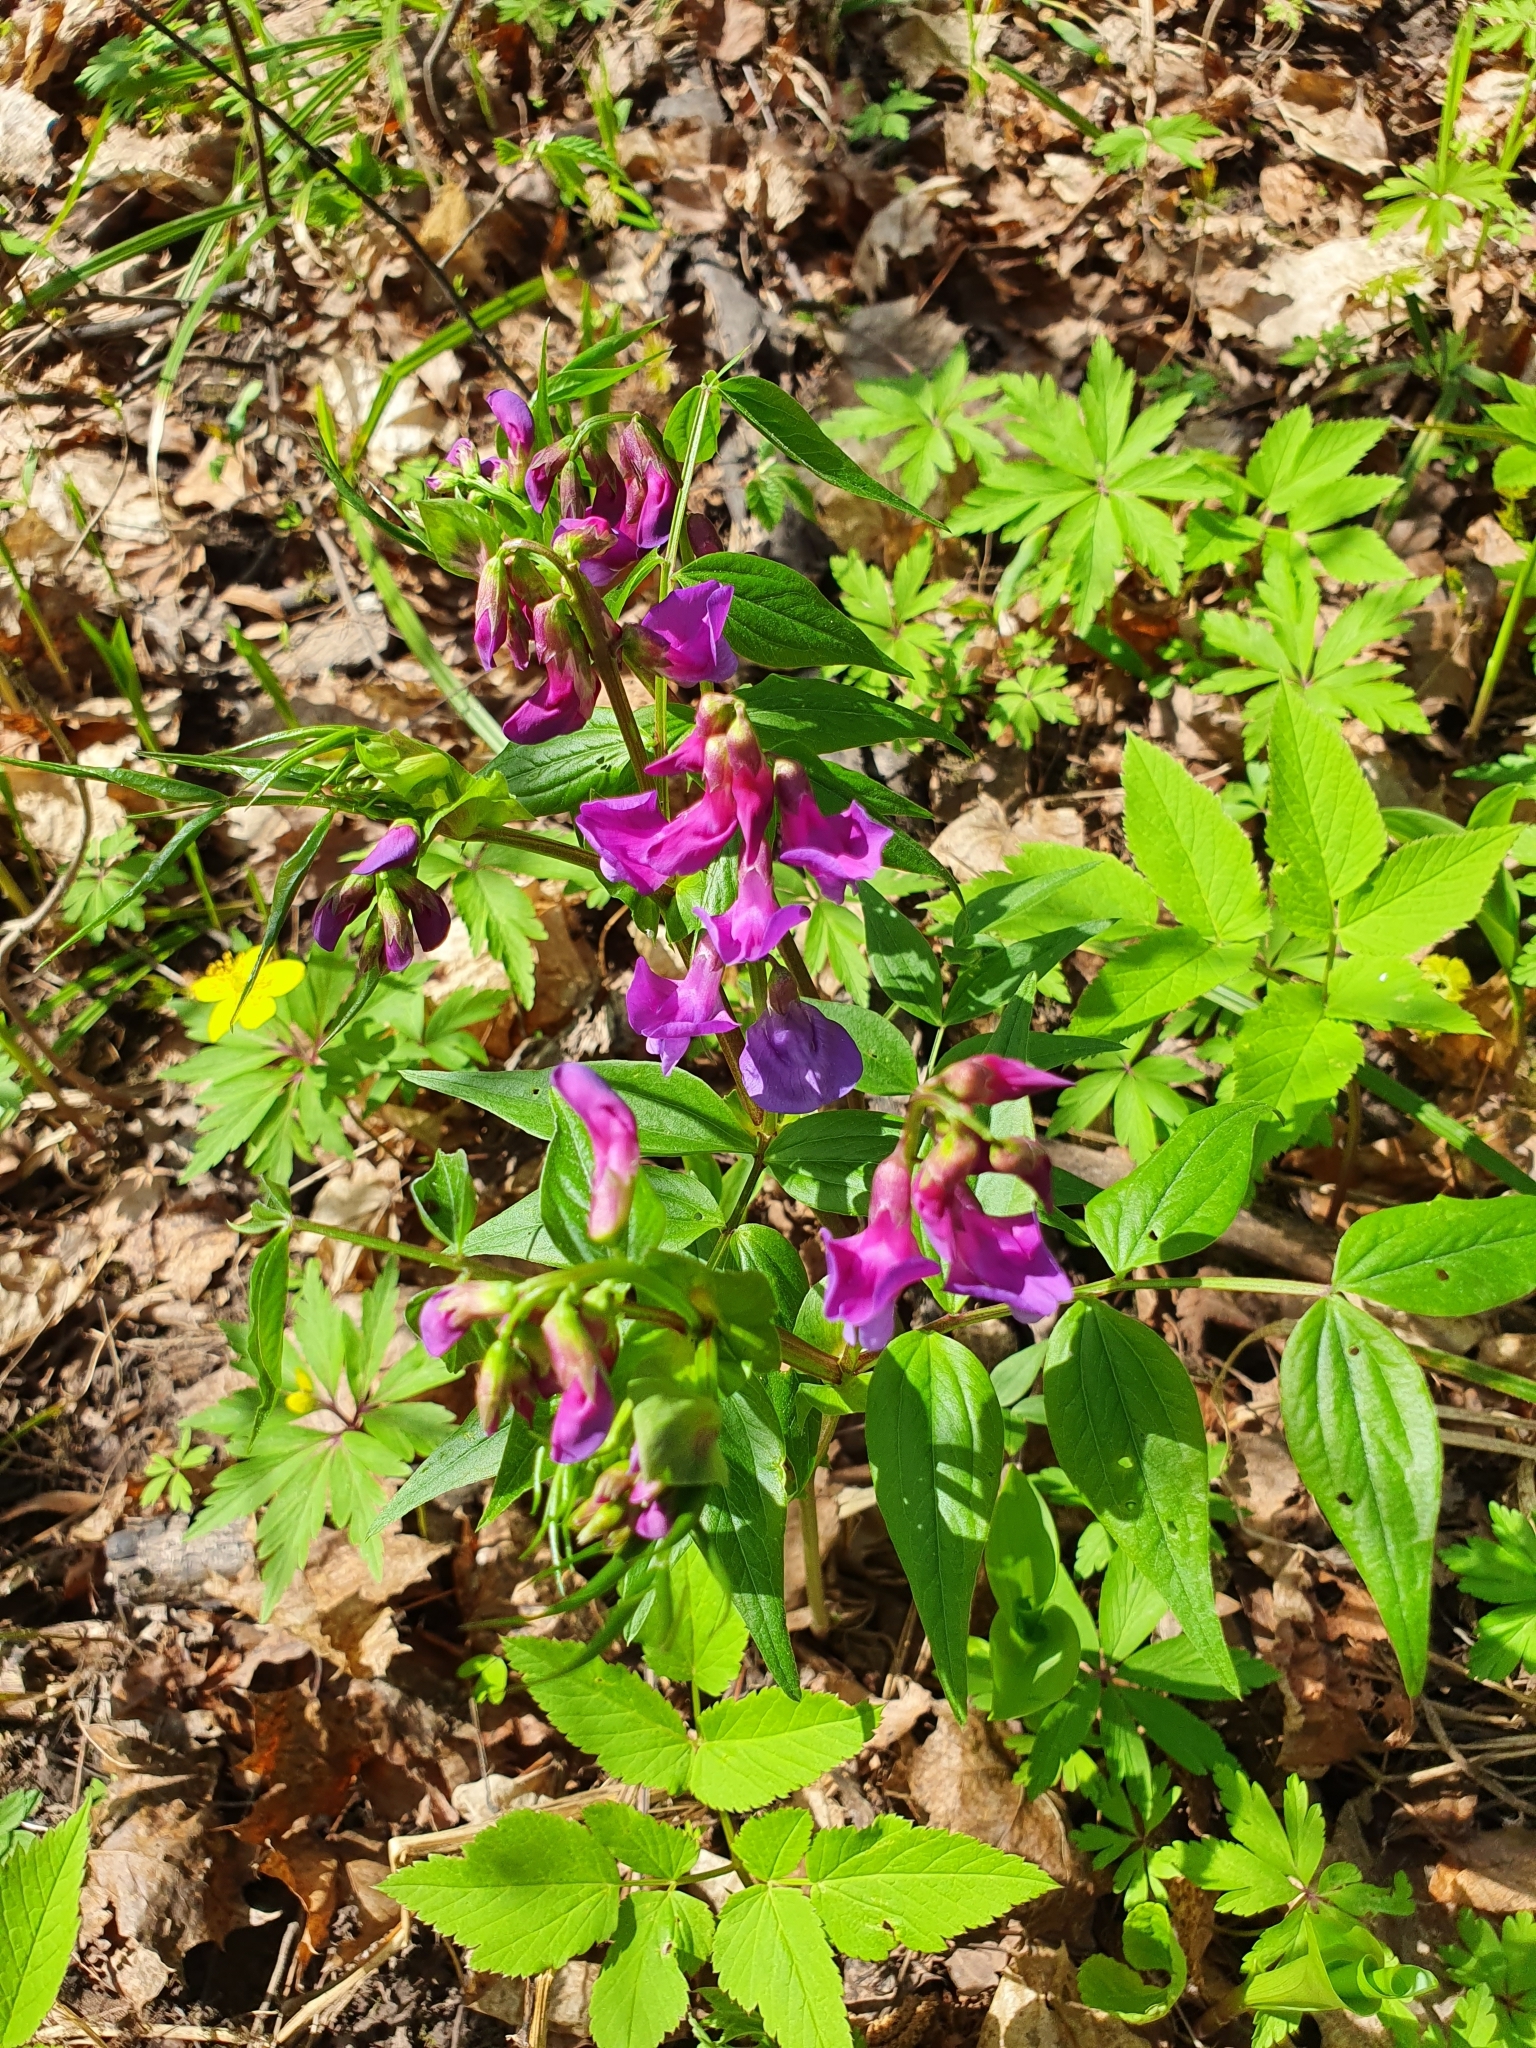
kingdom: Plantae
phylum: Tracheophyta
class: Magnoliopsida
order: Fabales
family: Fabaceae
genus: Lathyrus
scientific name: Lathyrus vernus
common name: Spring pea
